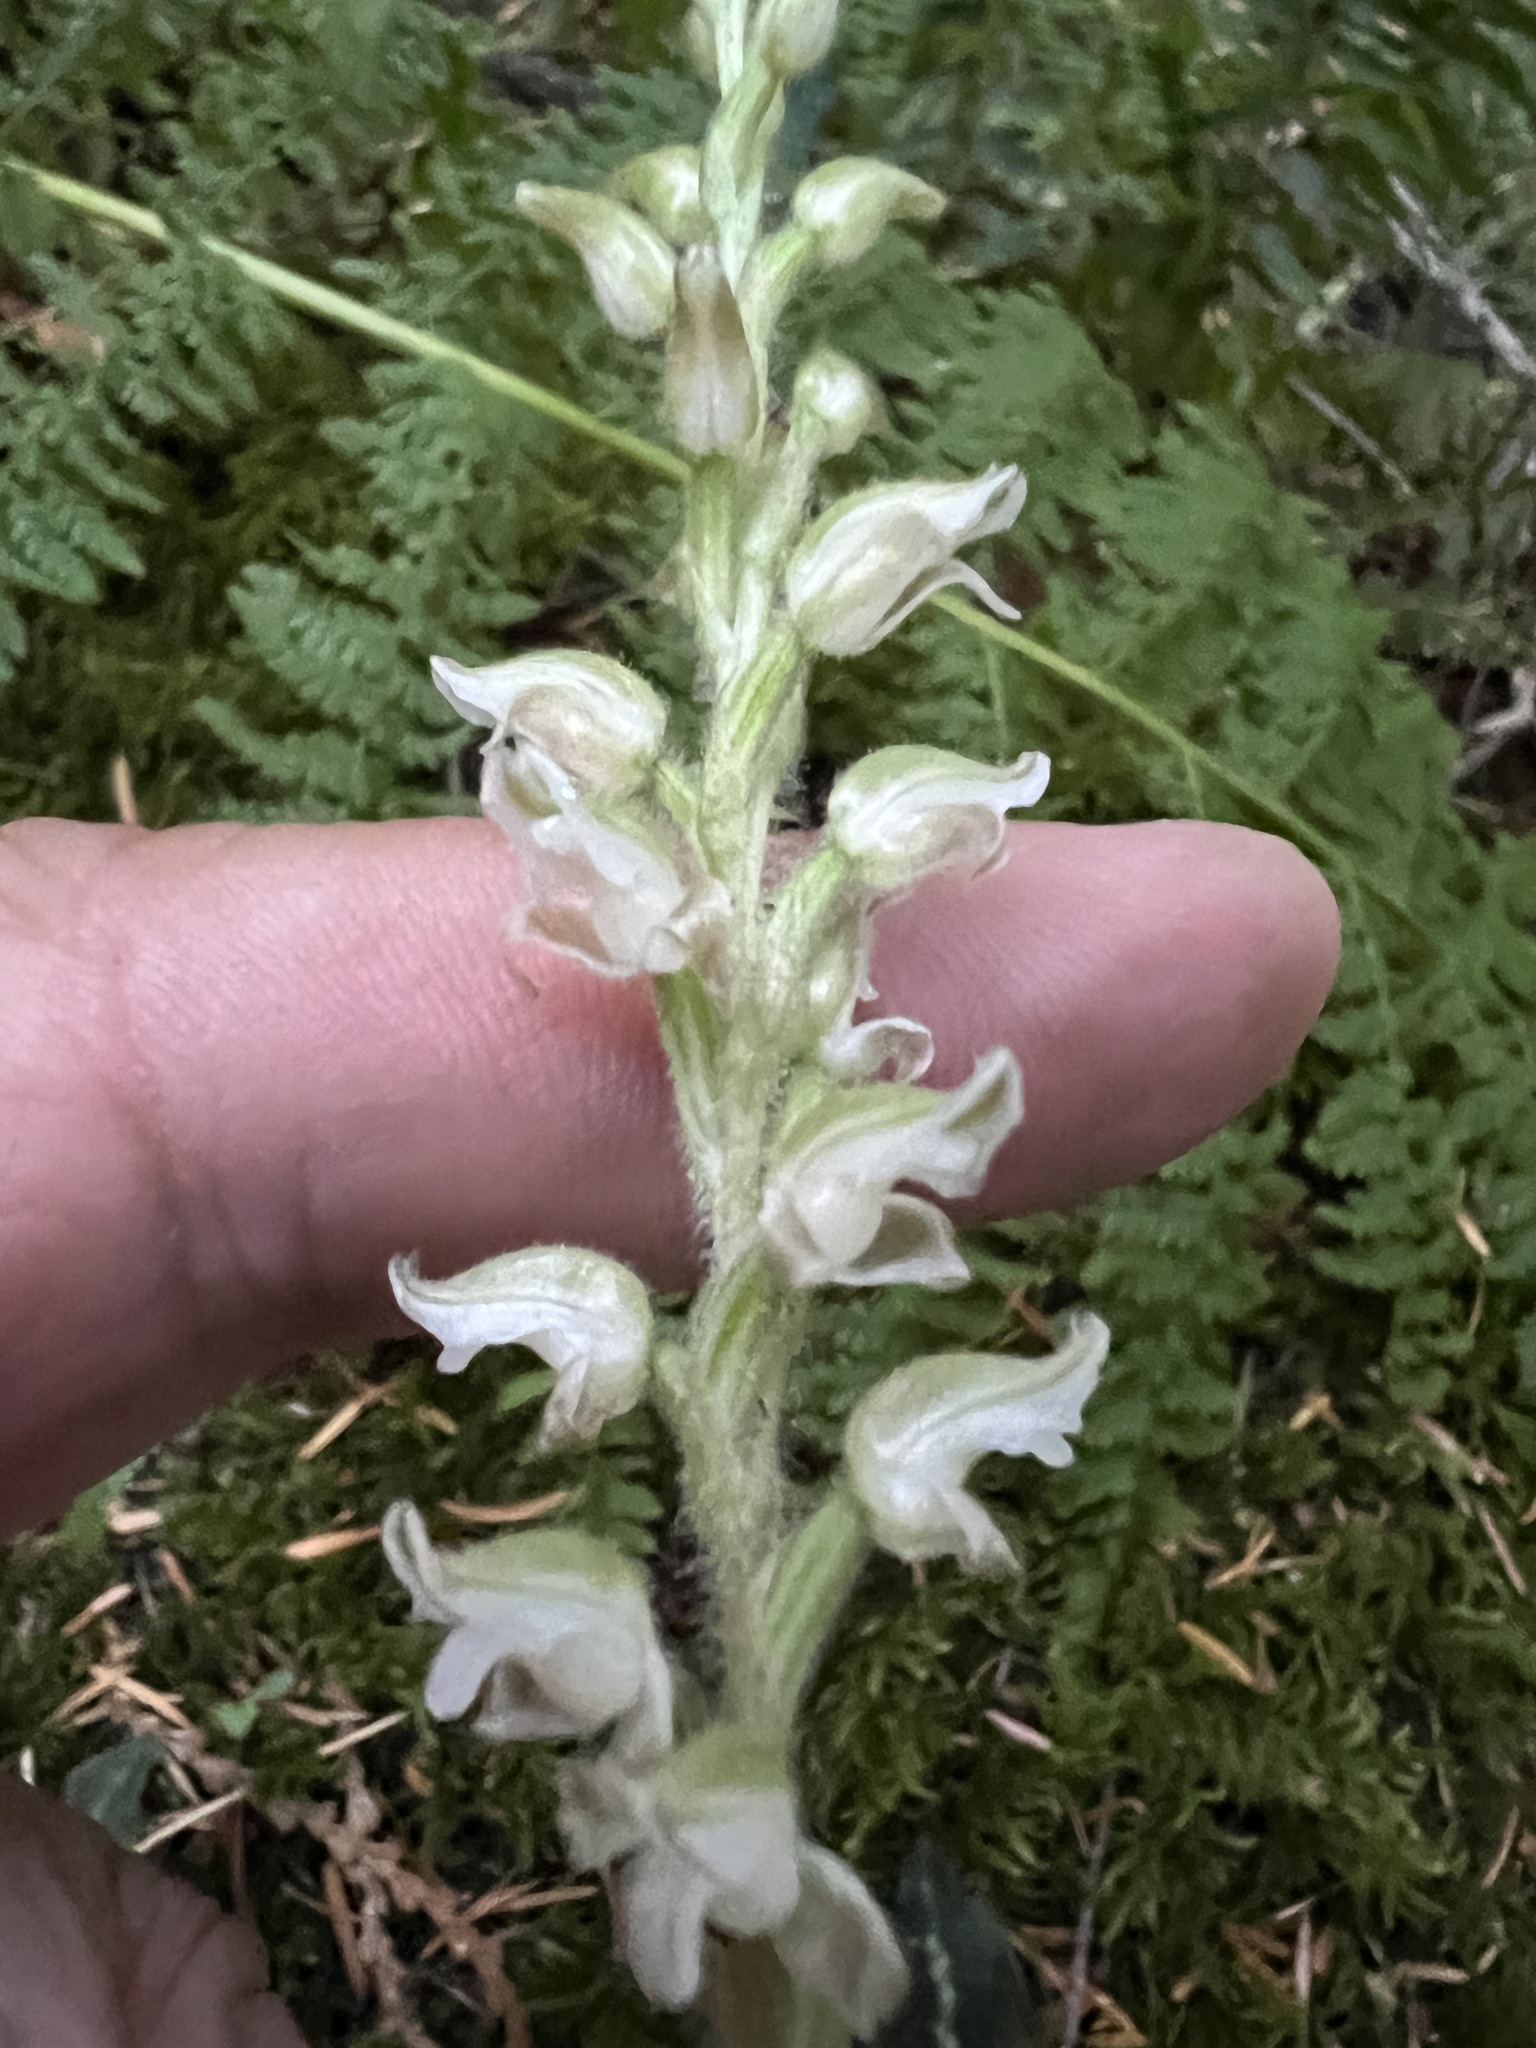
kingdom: Plantae
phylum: Tracheophyta
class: Liliopsida
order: Asparagales
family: Orchidaceae
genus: Goodyera
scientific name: Goodyera oblongifolia
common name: Giant rattlesnake-plantain
